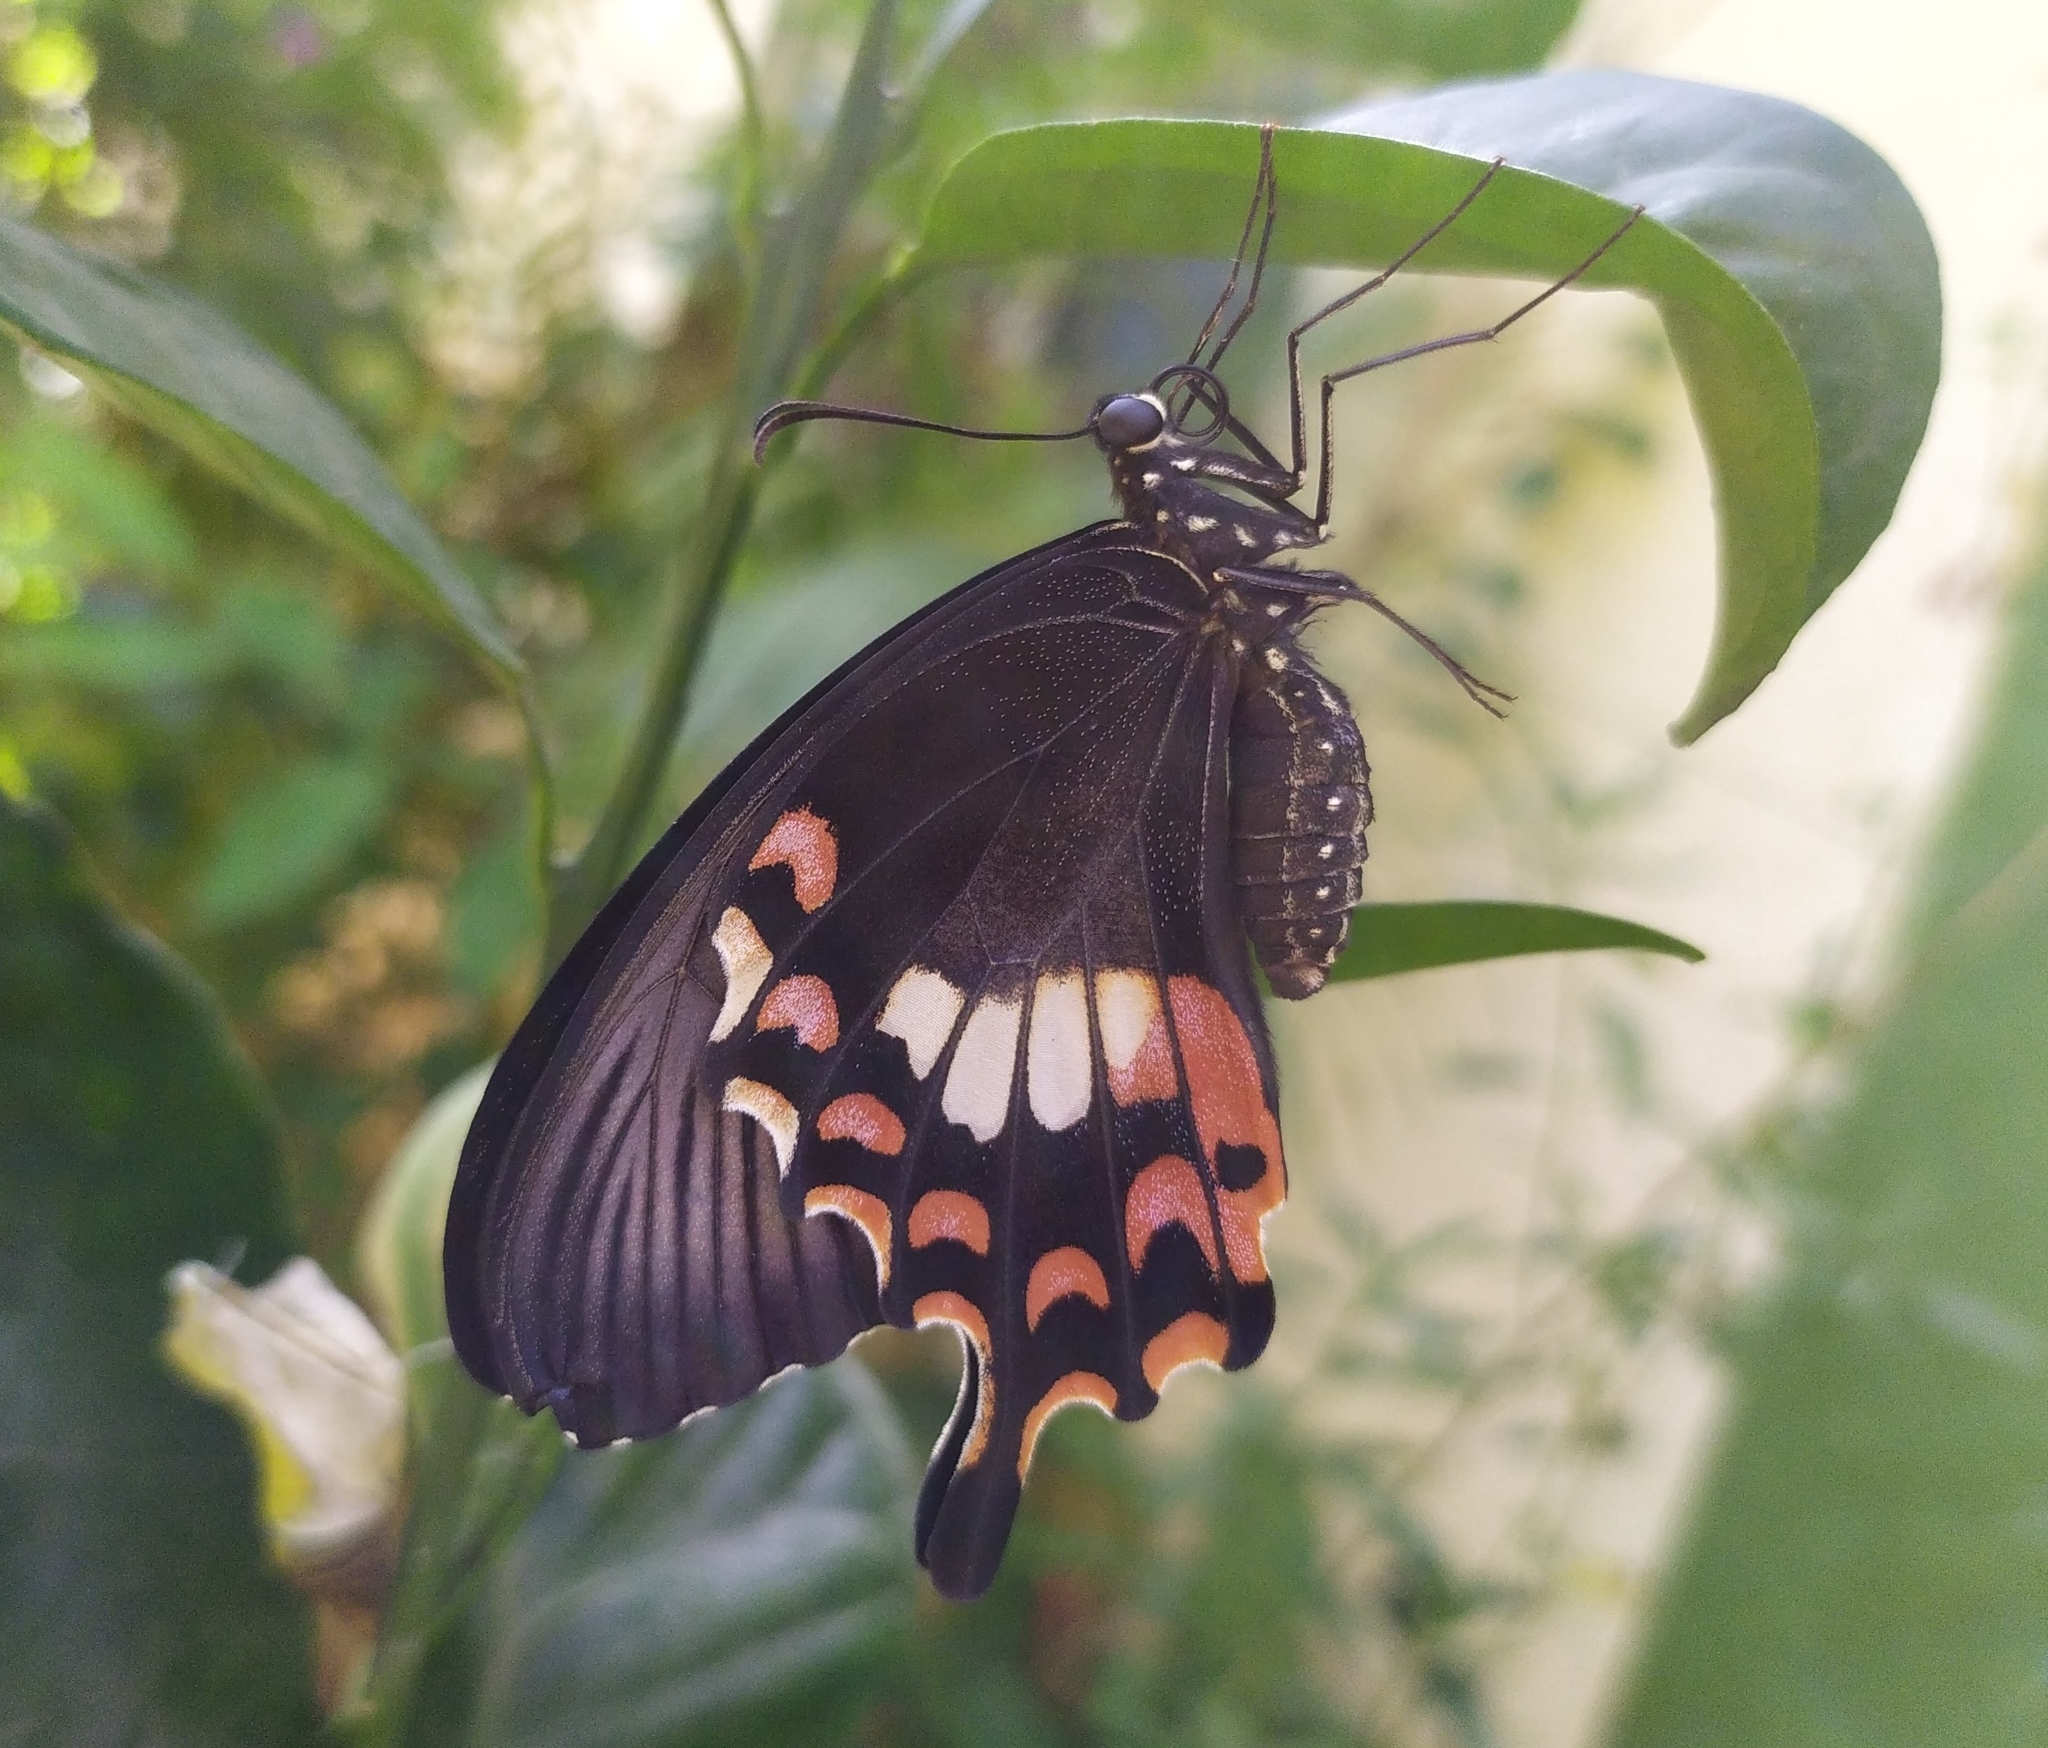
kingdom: Animalia
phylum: Arthropoda
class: Insecta
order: Lepidoptera
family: Papilionidae
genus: Papilio
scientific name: Papilio polytes
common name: Common mormon
